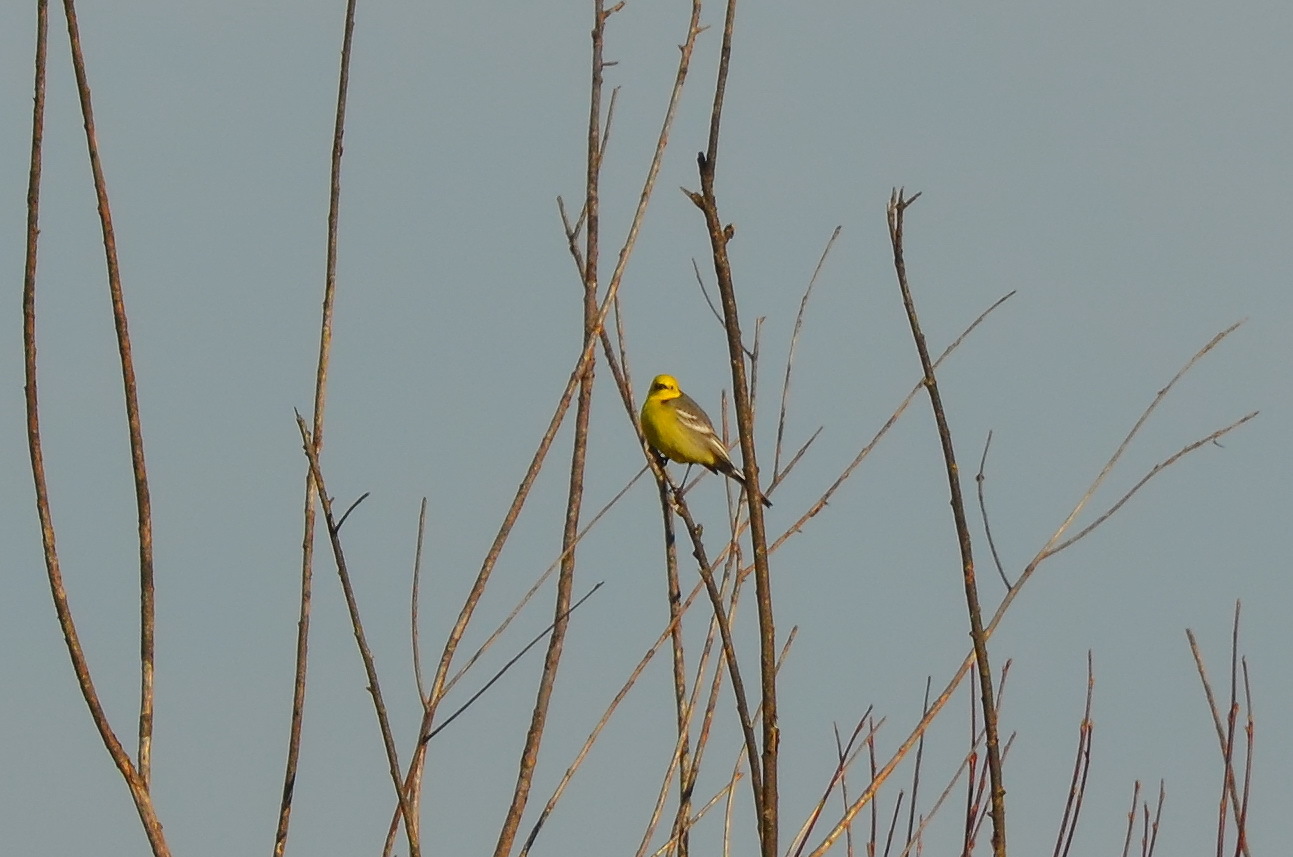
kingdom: Animalia
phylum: Chordata
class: Aves
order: Passeriformes
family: Motacillidae
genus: Motacilla
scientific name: Motacilla citreola
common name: Citrine wagtail
